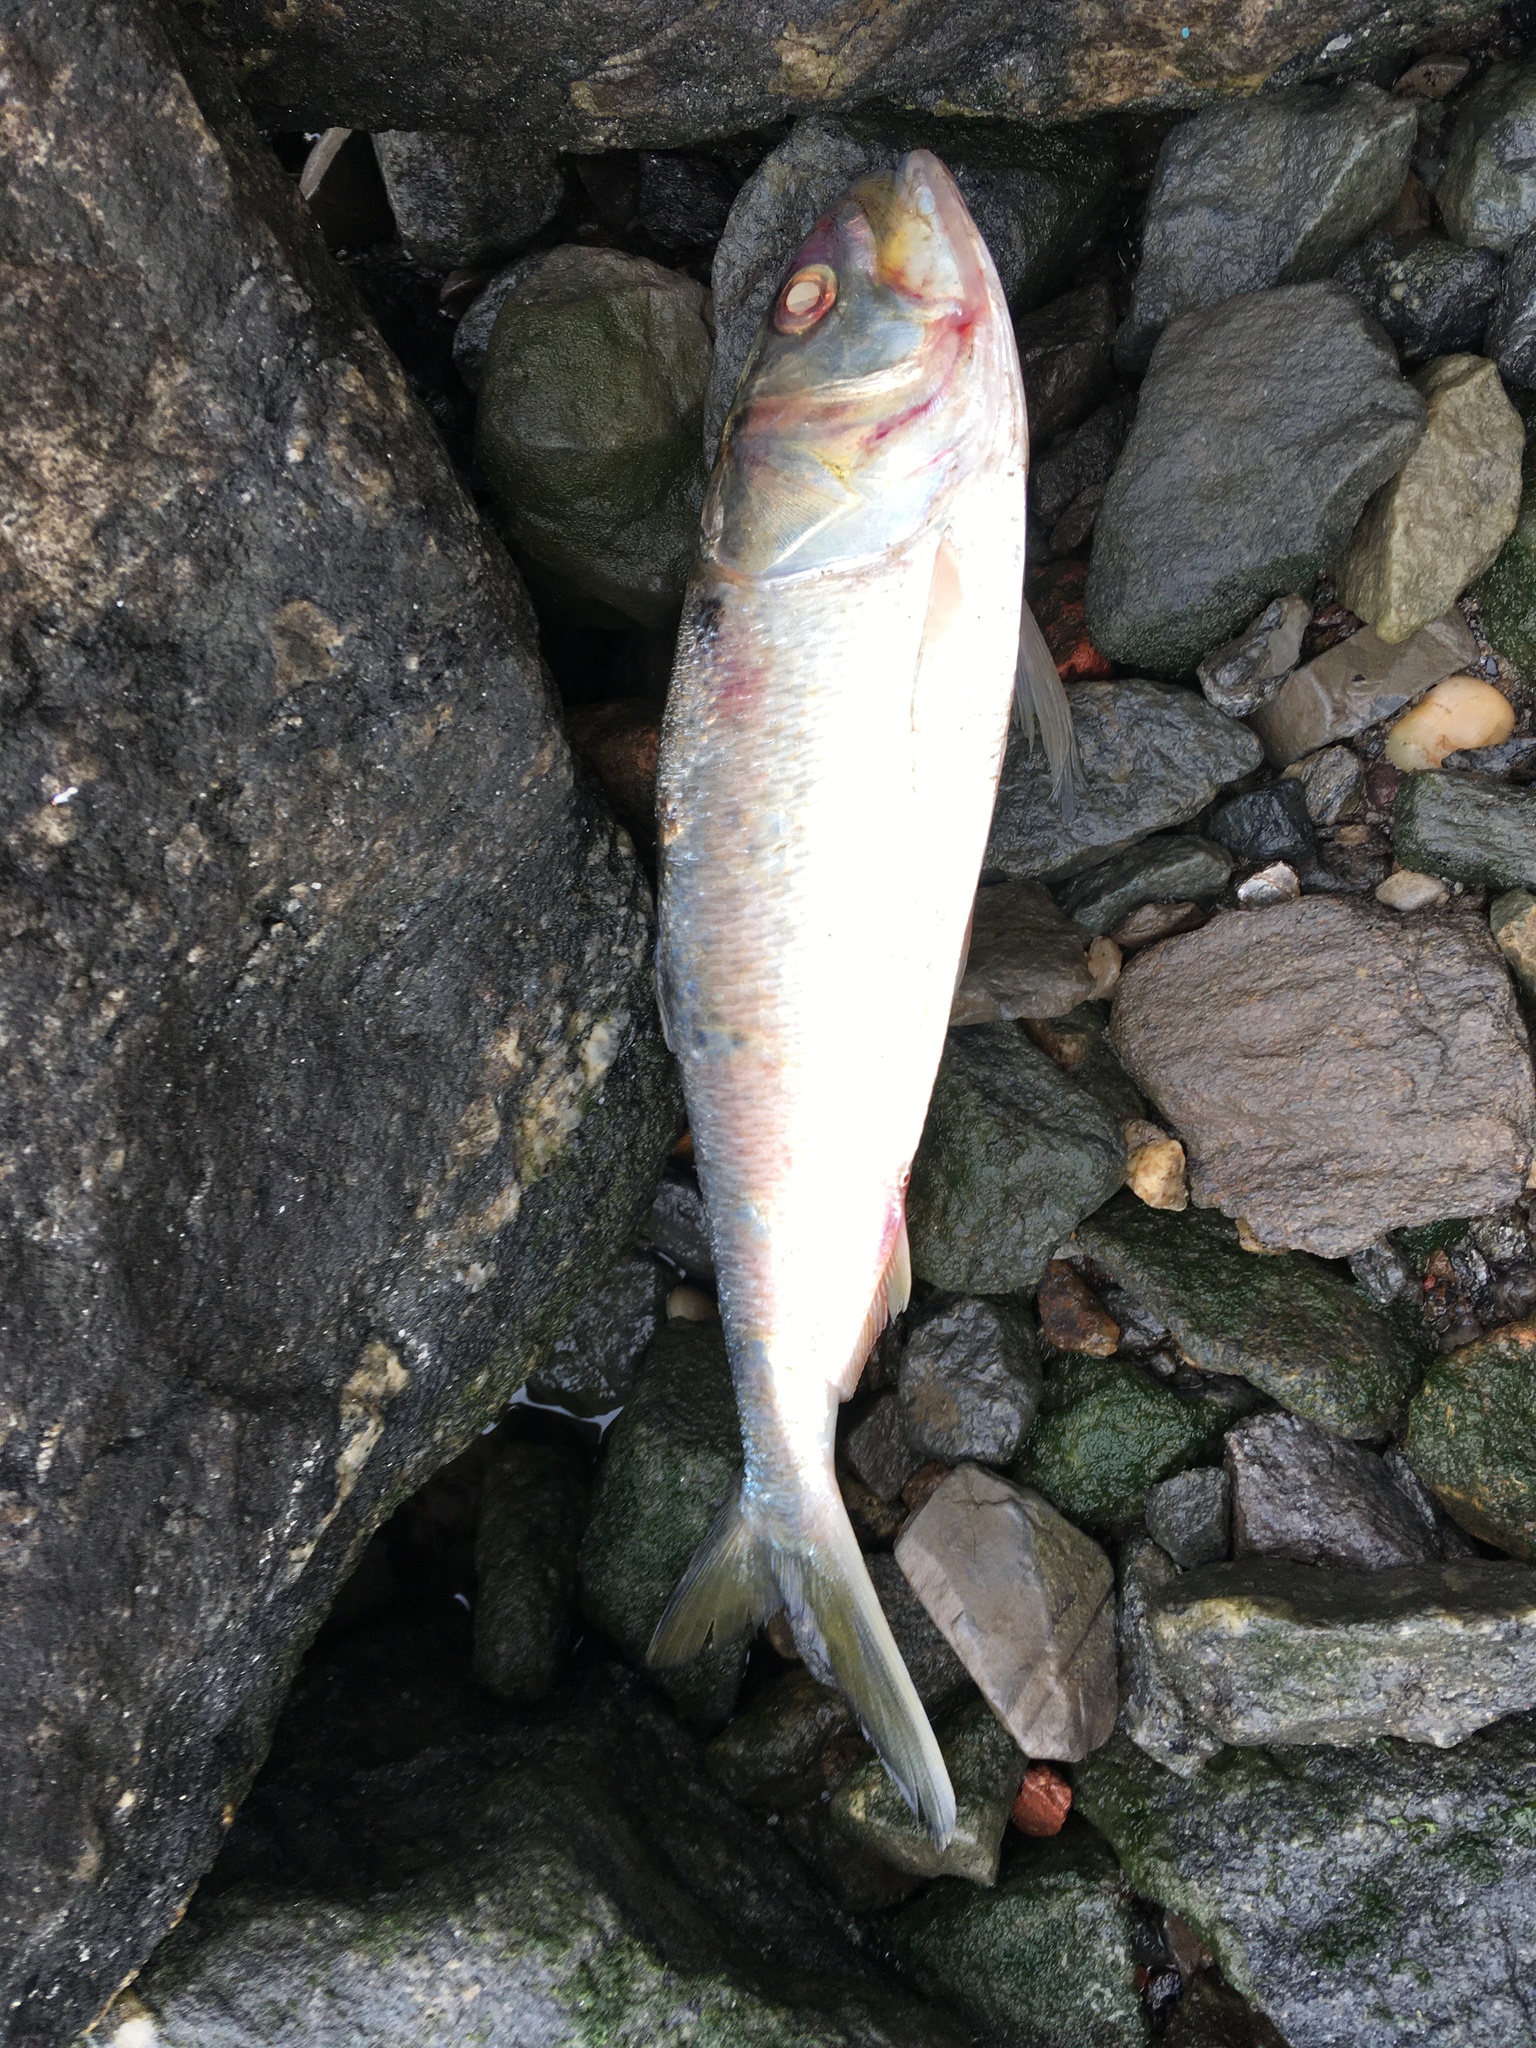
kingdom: Animalia
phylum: Chordata
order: Clupeiformes
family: Clupeidae
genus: Brevoortia
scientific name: Brevoortia tyrannus
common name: Atlantic menhaden
